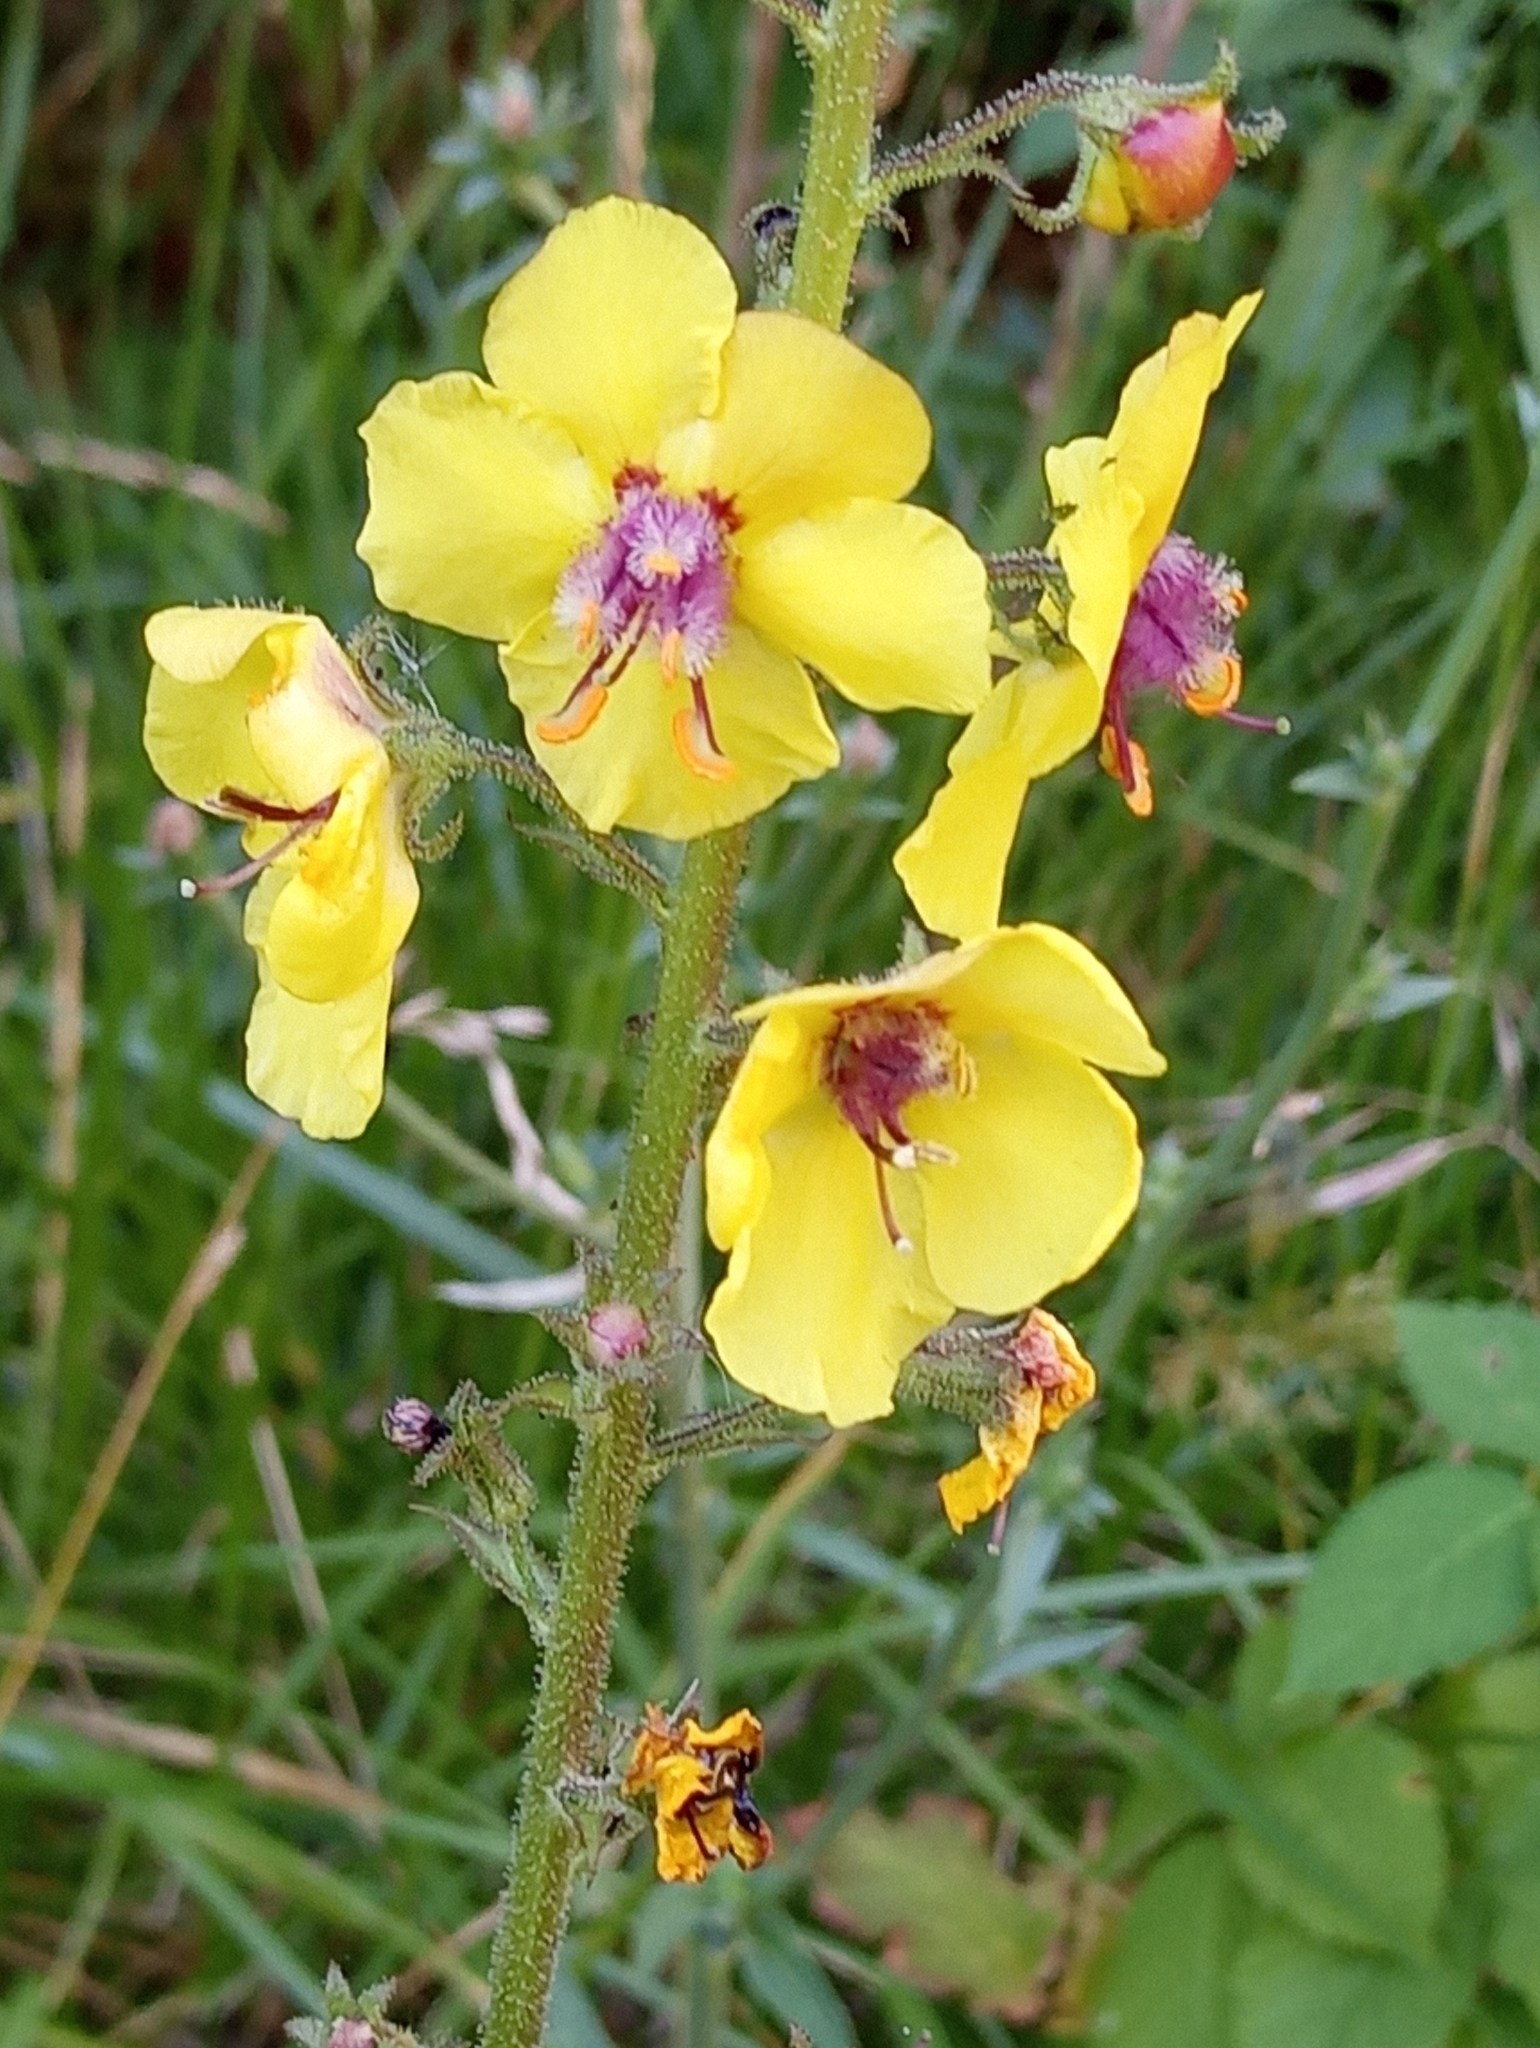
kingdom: Plantae
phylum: Tracheophyta
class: Magnoliopsida
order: Lamiales
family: Scrophulariaceae
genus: Verbascum
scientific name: Verbascum blattaria
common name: Moth mullein
